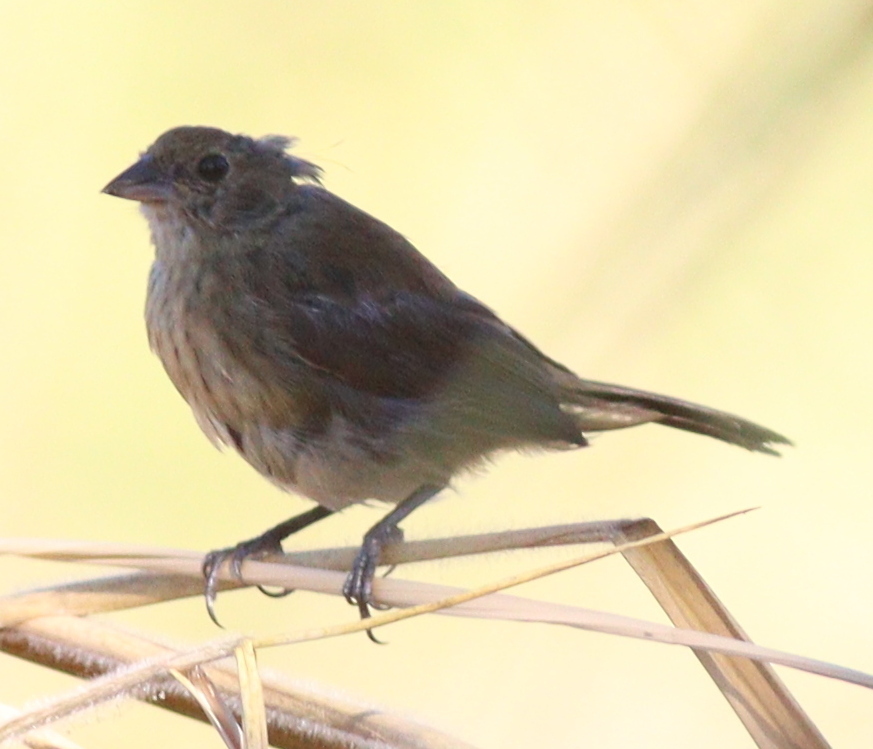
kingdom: Animalia
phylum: Chordata
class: Aves
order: Passeriformes
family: Thraupidae
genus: Volatinia
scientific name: Volatinia jacarina
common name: Blue-black grassquit
